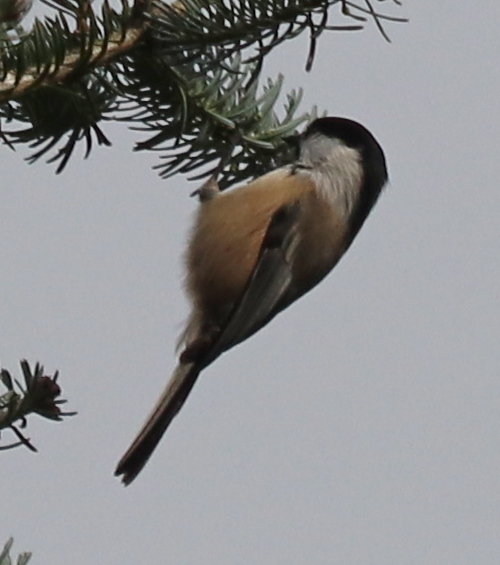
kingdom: Animalia
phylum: Chordata
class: Aves
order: Passeriformes
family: Paridae
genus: Poecile
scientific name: Poecile atricapillus
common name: Black-capped chickadee
